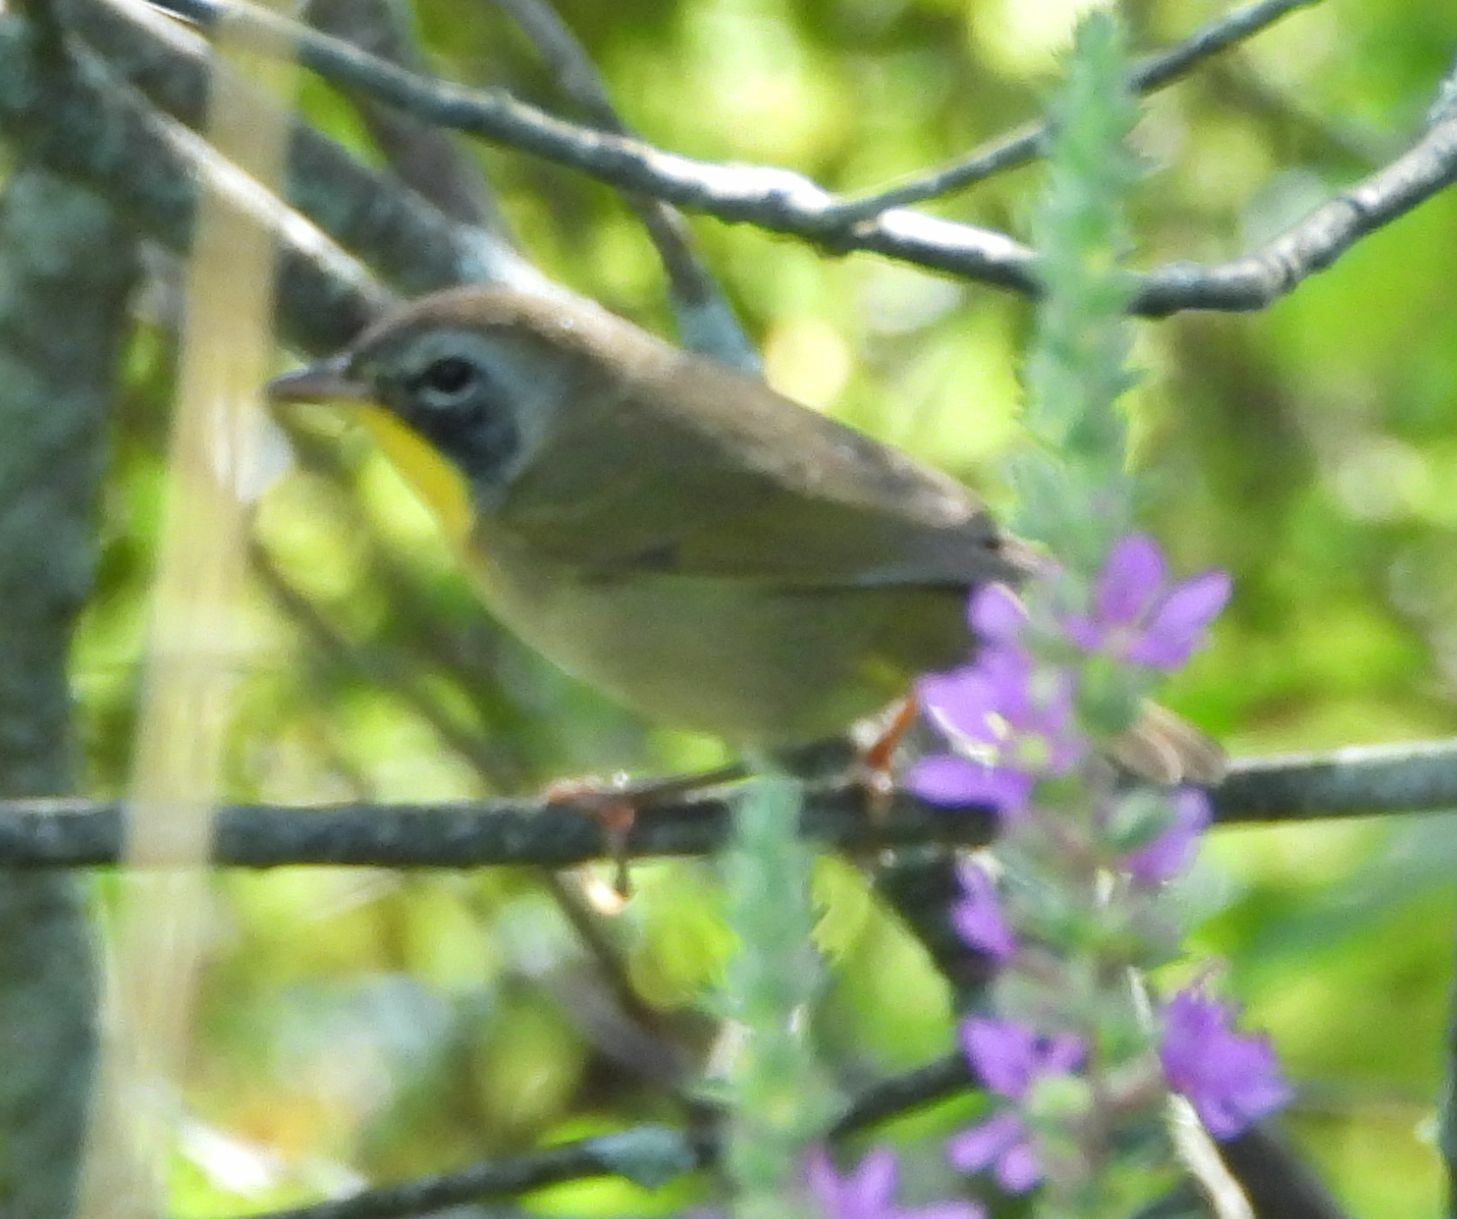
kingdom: Animalia
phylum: Chordata
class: Aves
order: Passeriformes
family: Parulidae
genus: Geothlypis
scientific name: Geothlypis trichas
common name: Common yellowthroat
